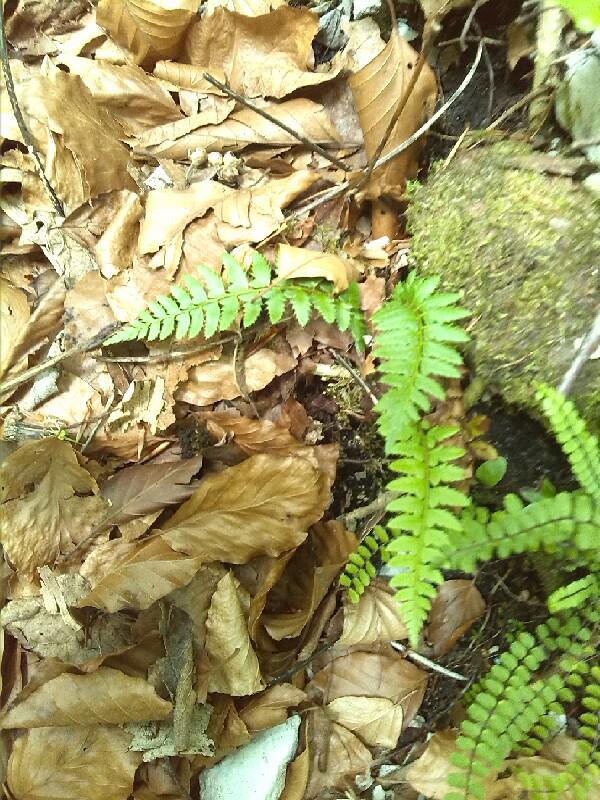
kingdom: Plantae
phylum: Tracheophyta
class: Polypodiopsida
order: Polypodiales
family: Dryopteridaceae
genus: Polystichum
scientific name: Polystichum aculeatum
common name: Hard shield-fern
